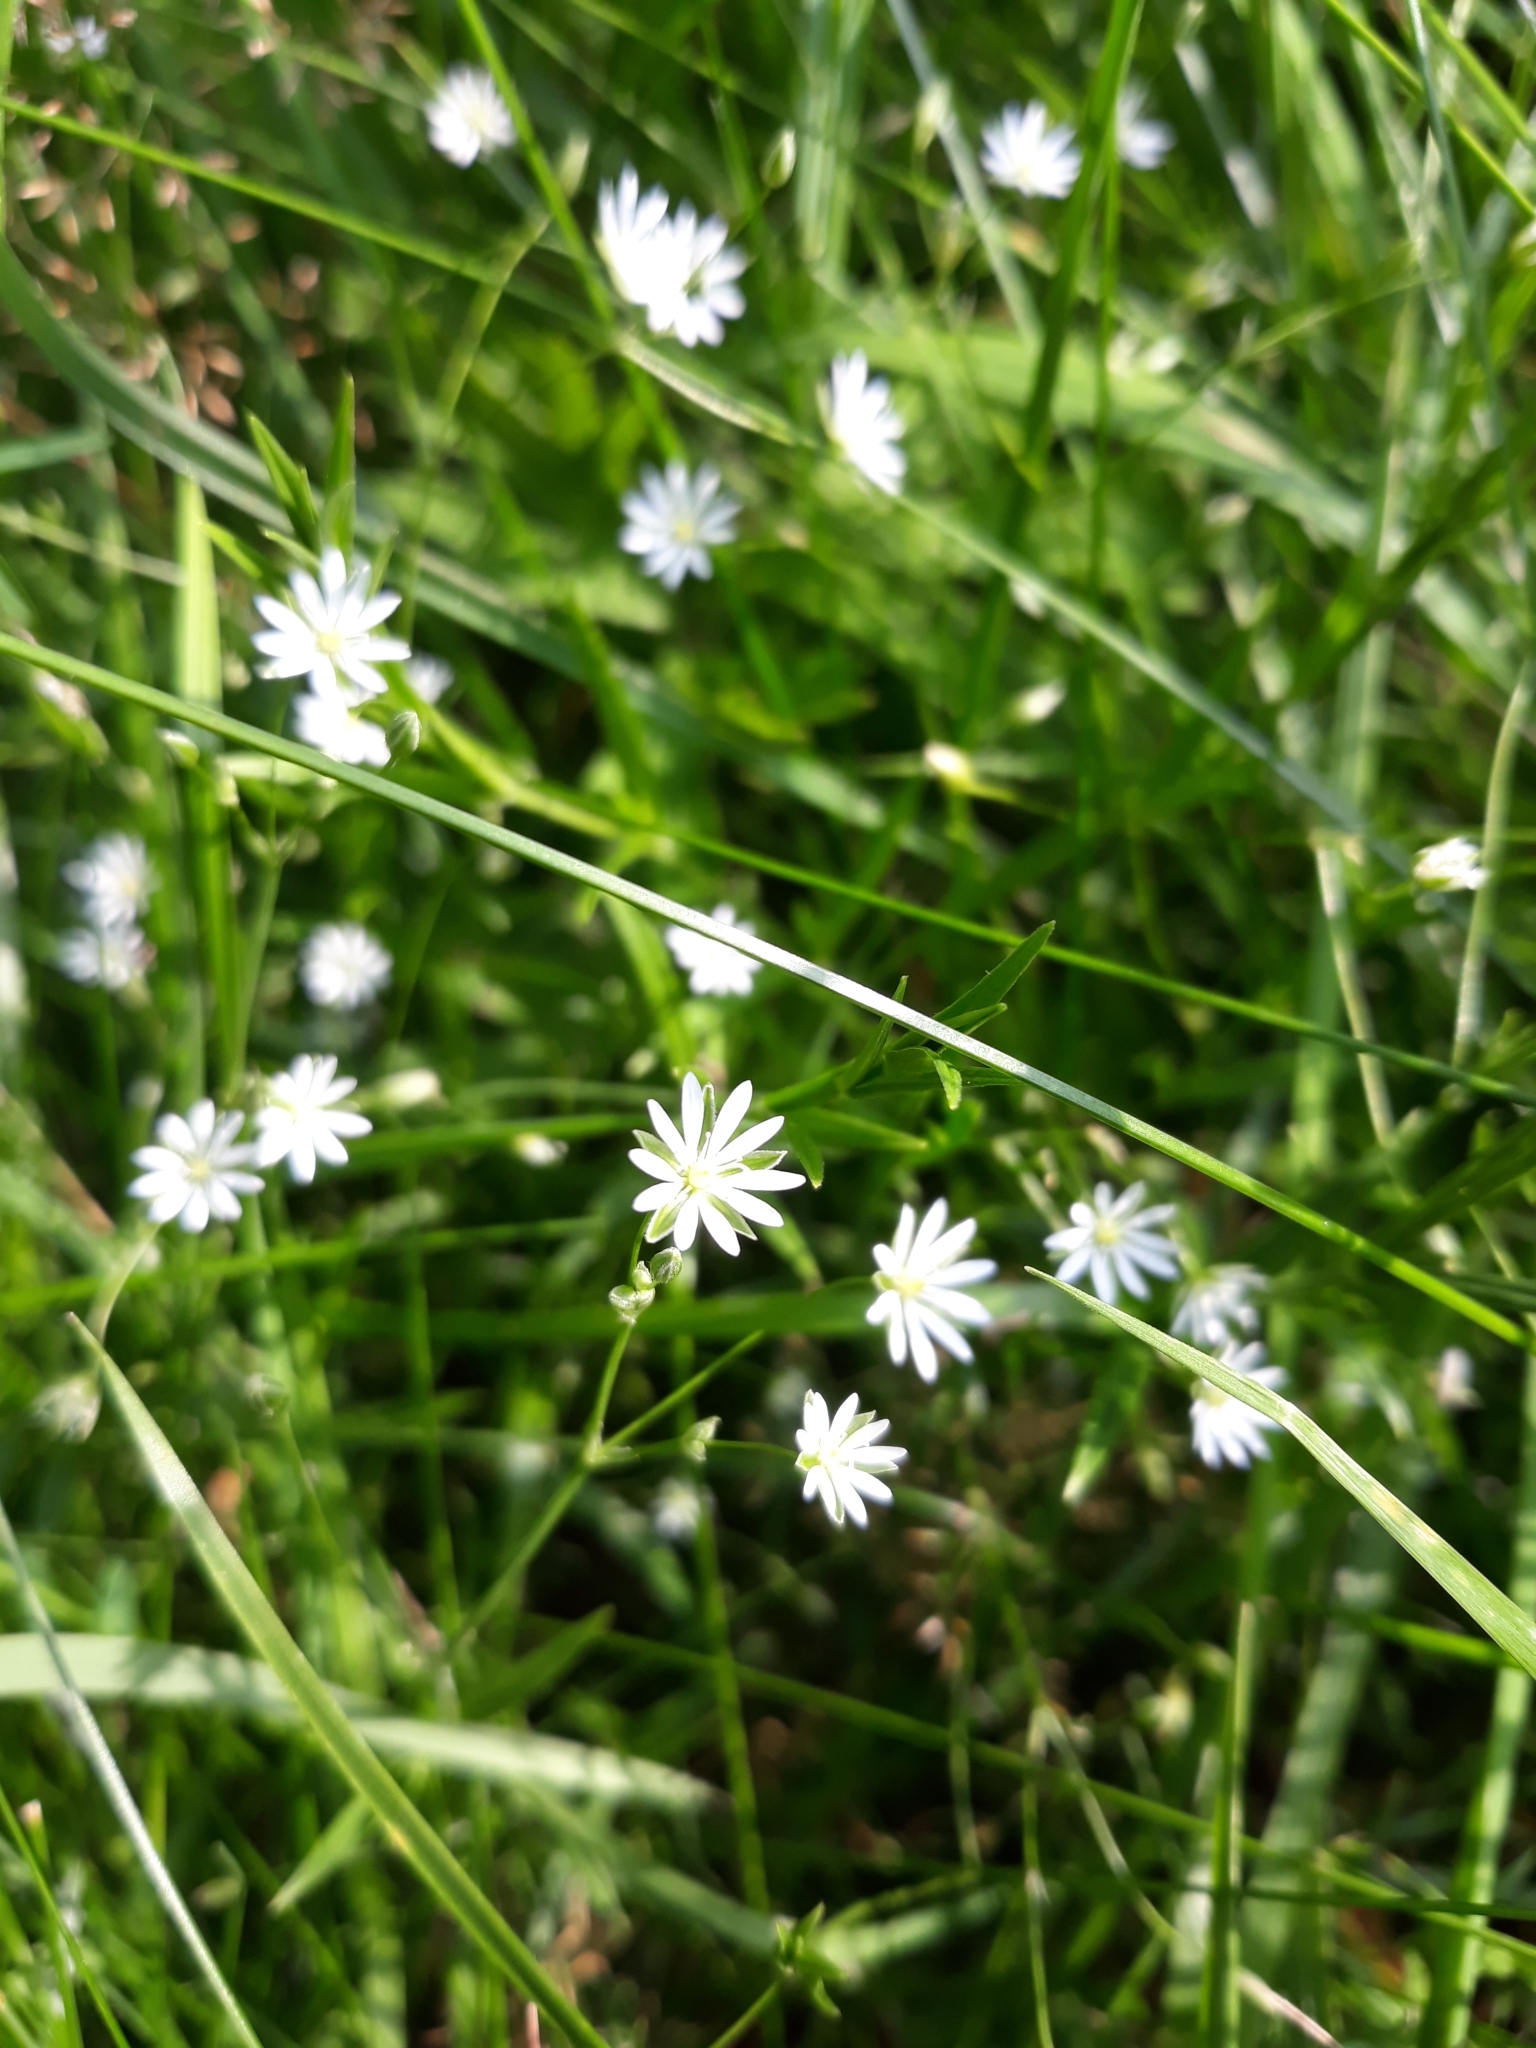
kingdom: Plantae
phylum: Tracheophyta
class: Magnoliopsida
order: Caryophyllales
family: Caryophyllaceae
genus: Stellaria
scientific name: Stellaria graminea
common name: Grass-like starwort
